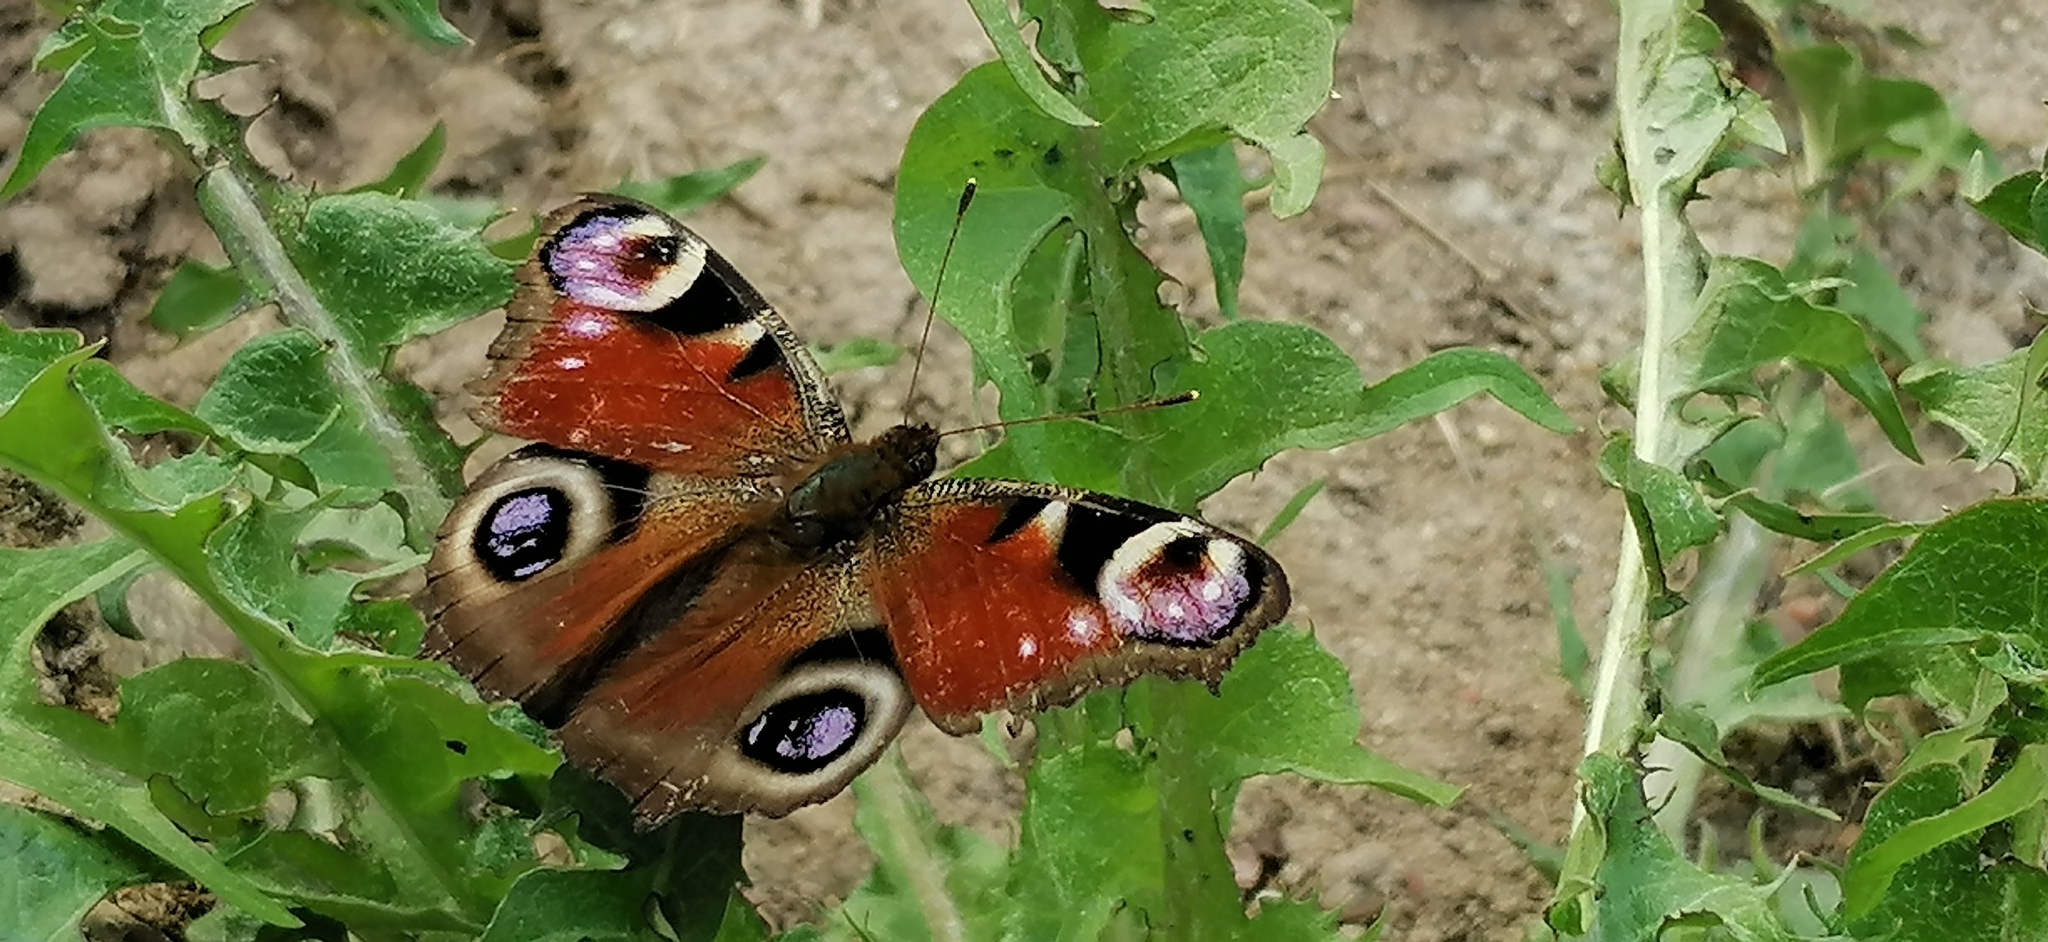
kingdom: Animalia
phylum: Arthropoda
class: Insecta
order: Lepidoptera
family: Nymphalidae
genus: Aglais
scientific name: Aglais io
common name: Peacock
